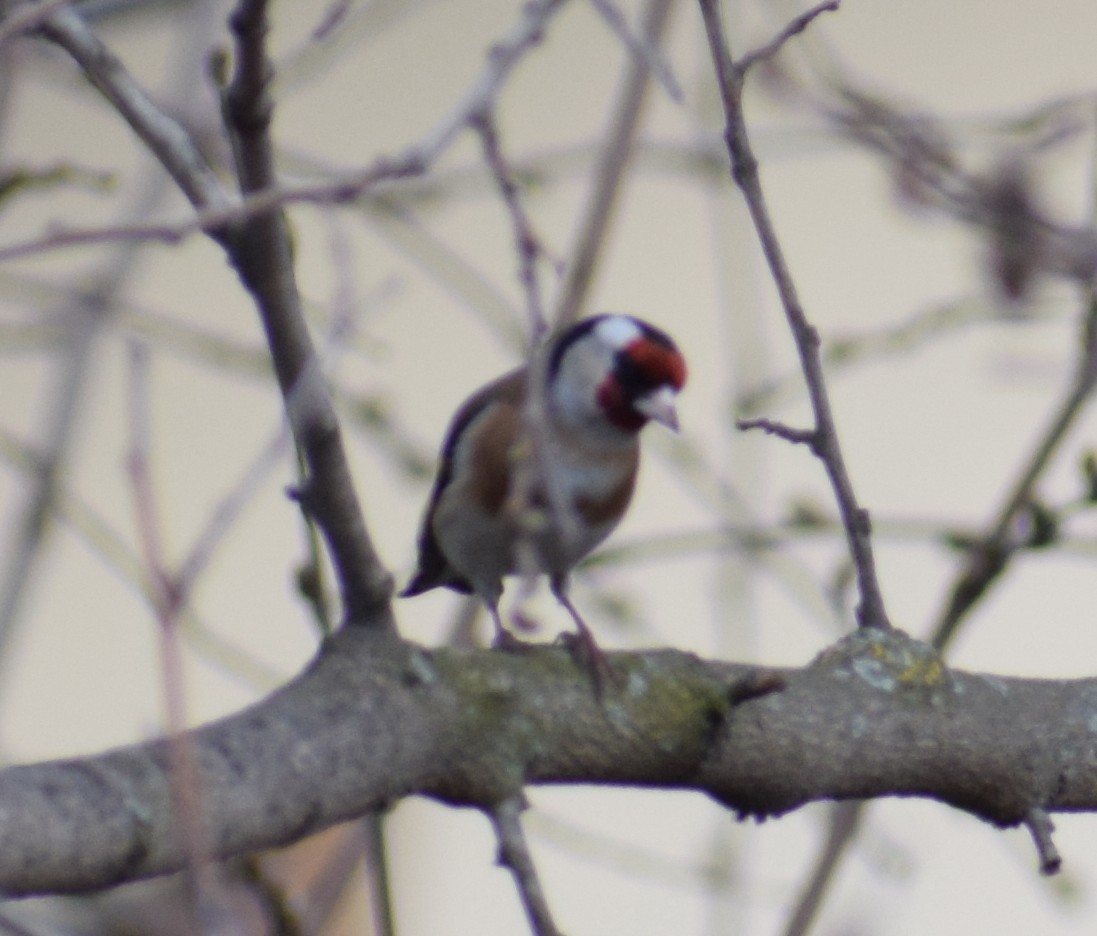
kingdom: Animalia
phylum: Chordata
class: Aves
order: Passeriformes
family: Fringillidae
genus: Carduelis
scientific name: Carduelis carduelis
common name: European goldfinch
